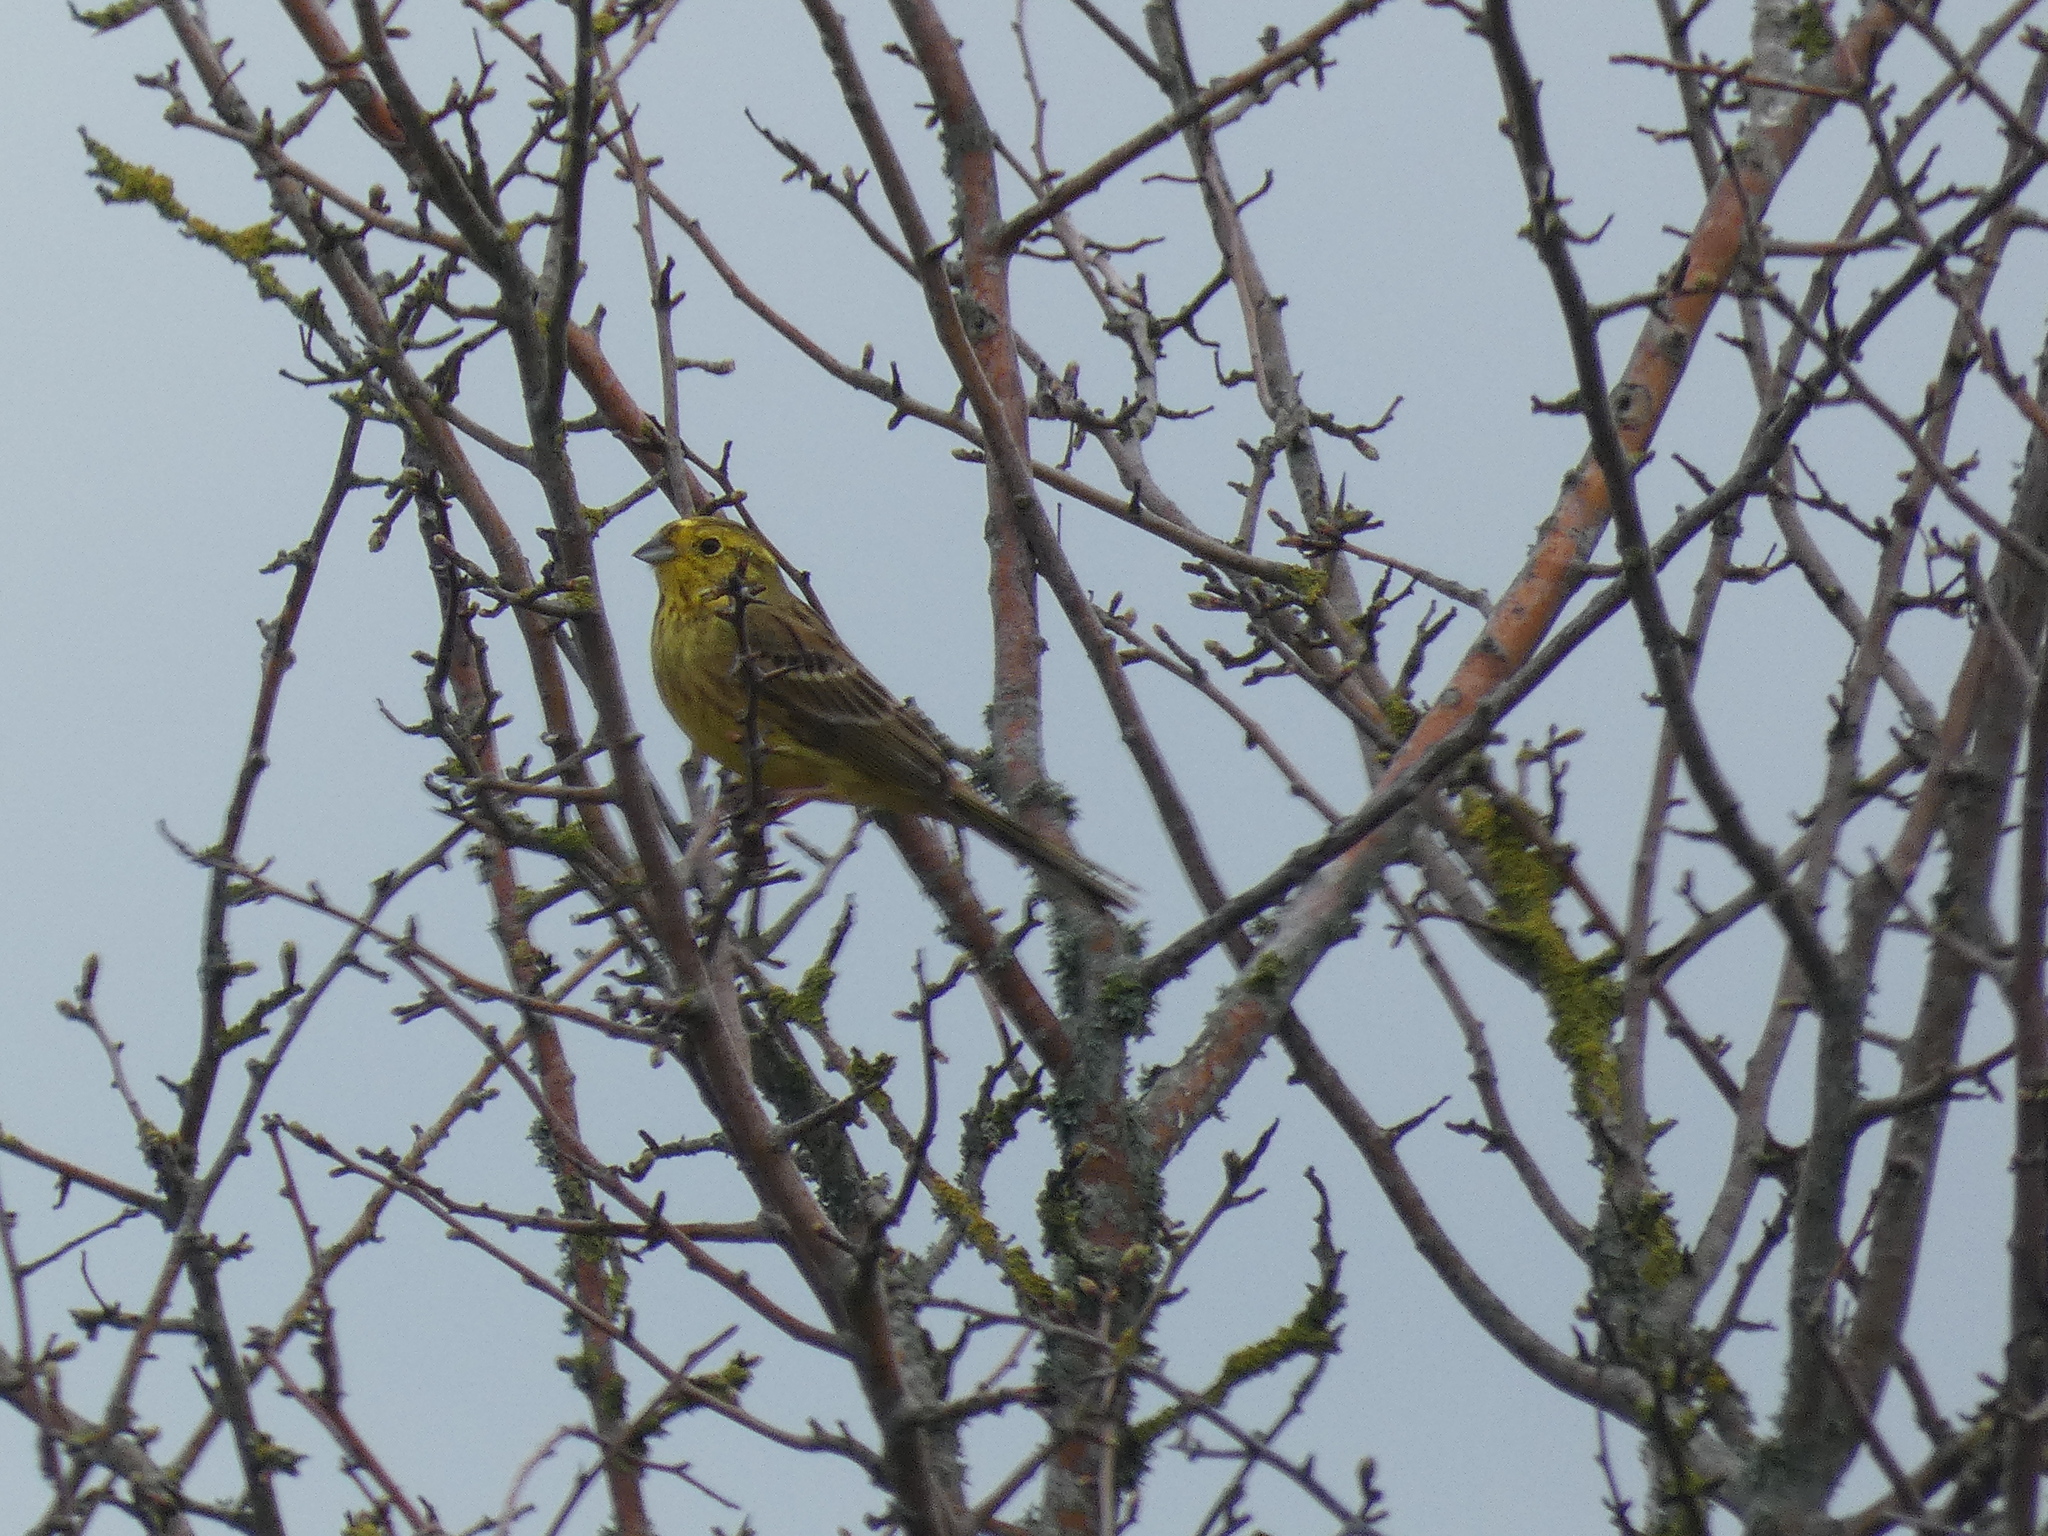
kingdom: Animalia
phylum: Chordata
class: Aves
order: Passeriformes
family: Emberizidae
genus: Emberiza
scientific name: Emberiza citrinella
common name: Yellowhammer
